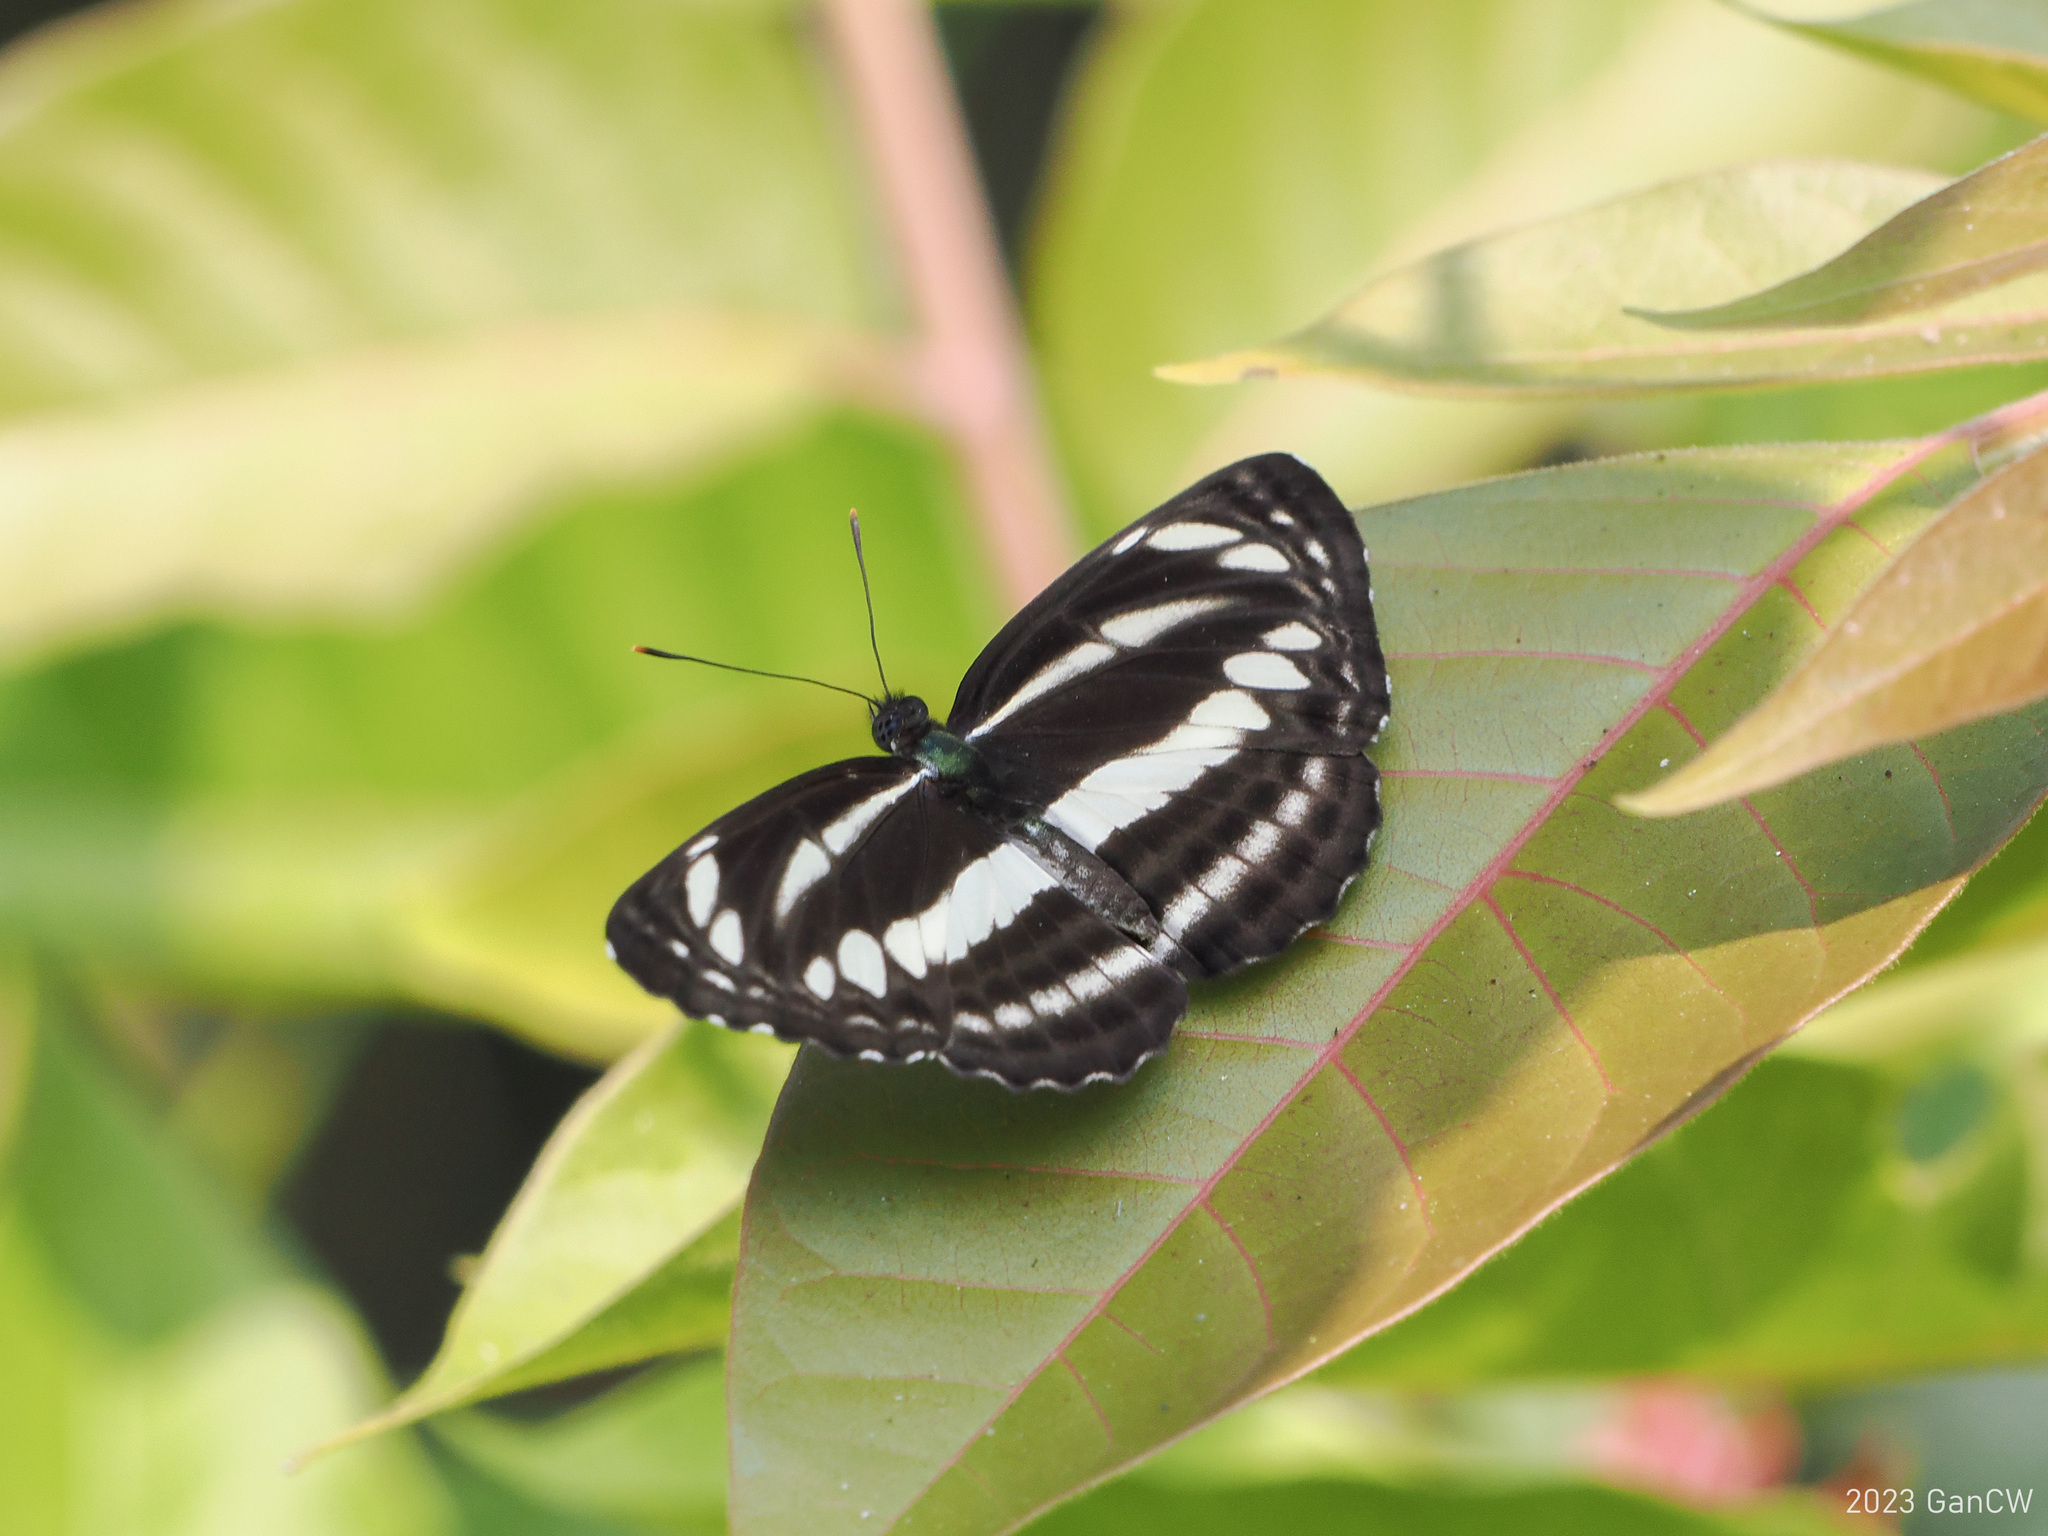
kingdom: Animalia
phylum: Arthropoda
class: Insecta
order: Lepidoptera
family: Nymphalidae
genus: Neptis
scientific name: Neptis clinia
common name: Southern sullied sailer
